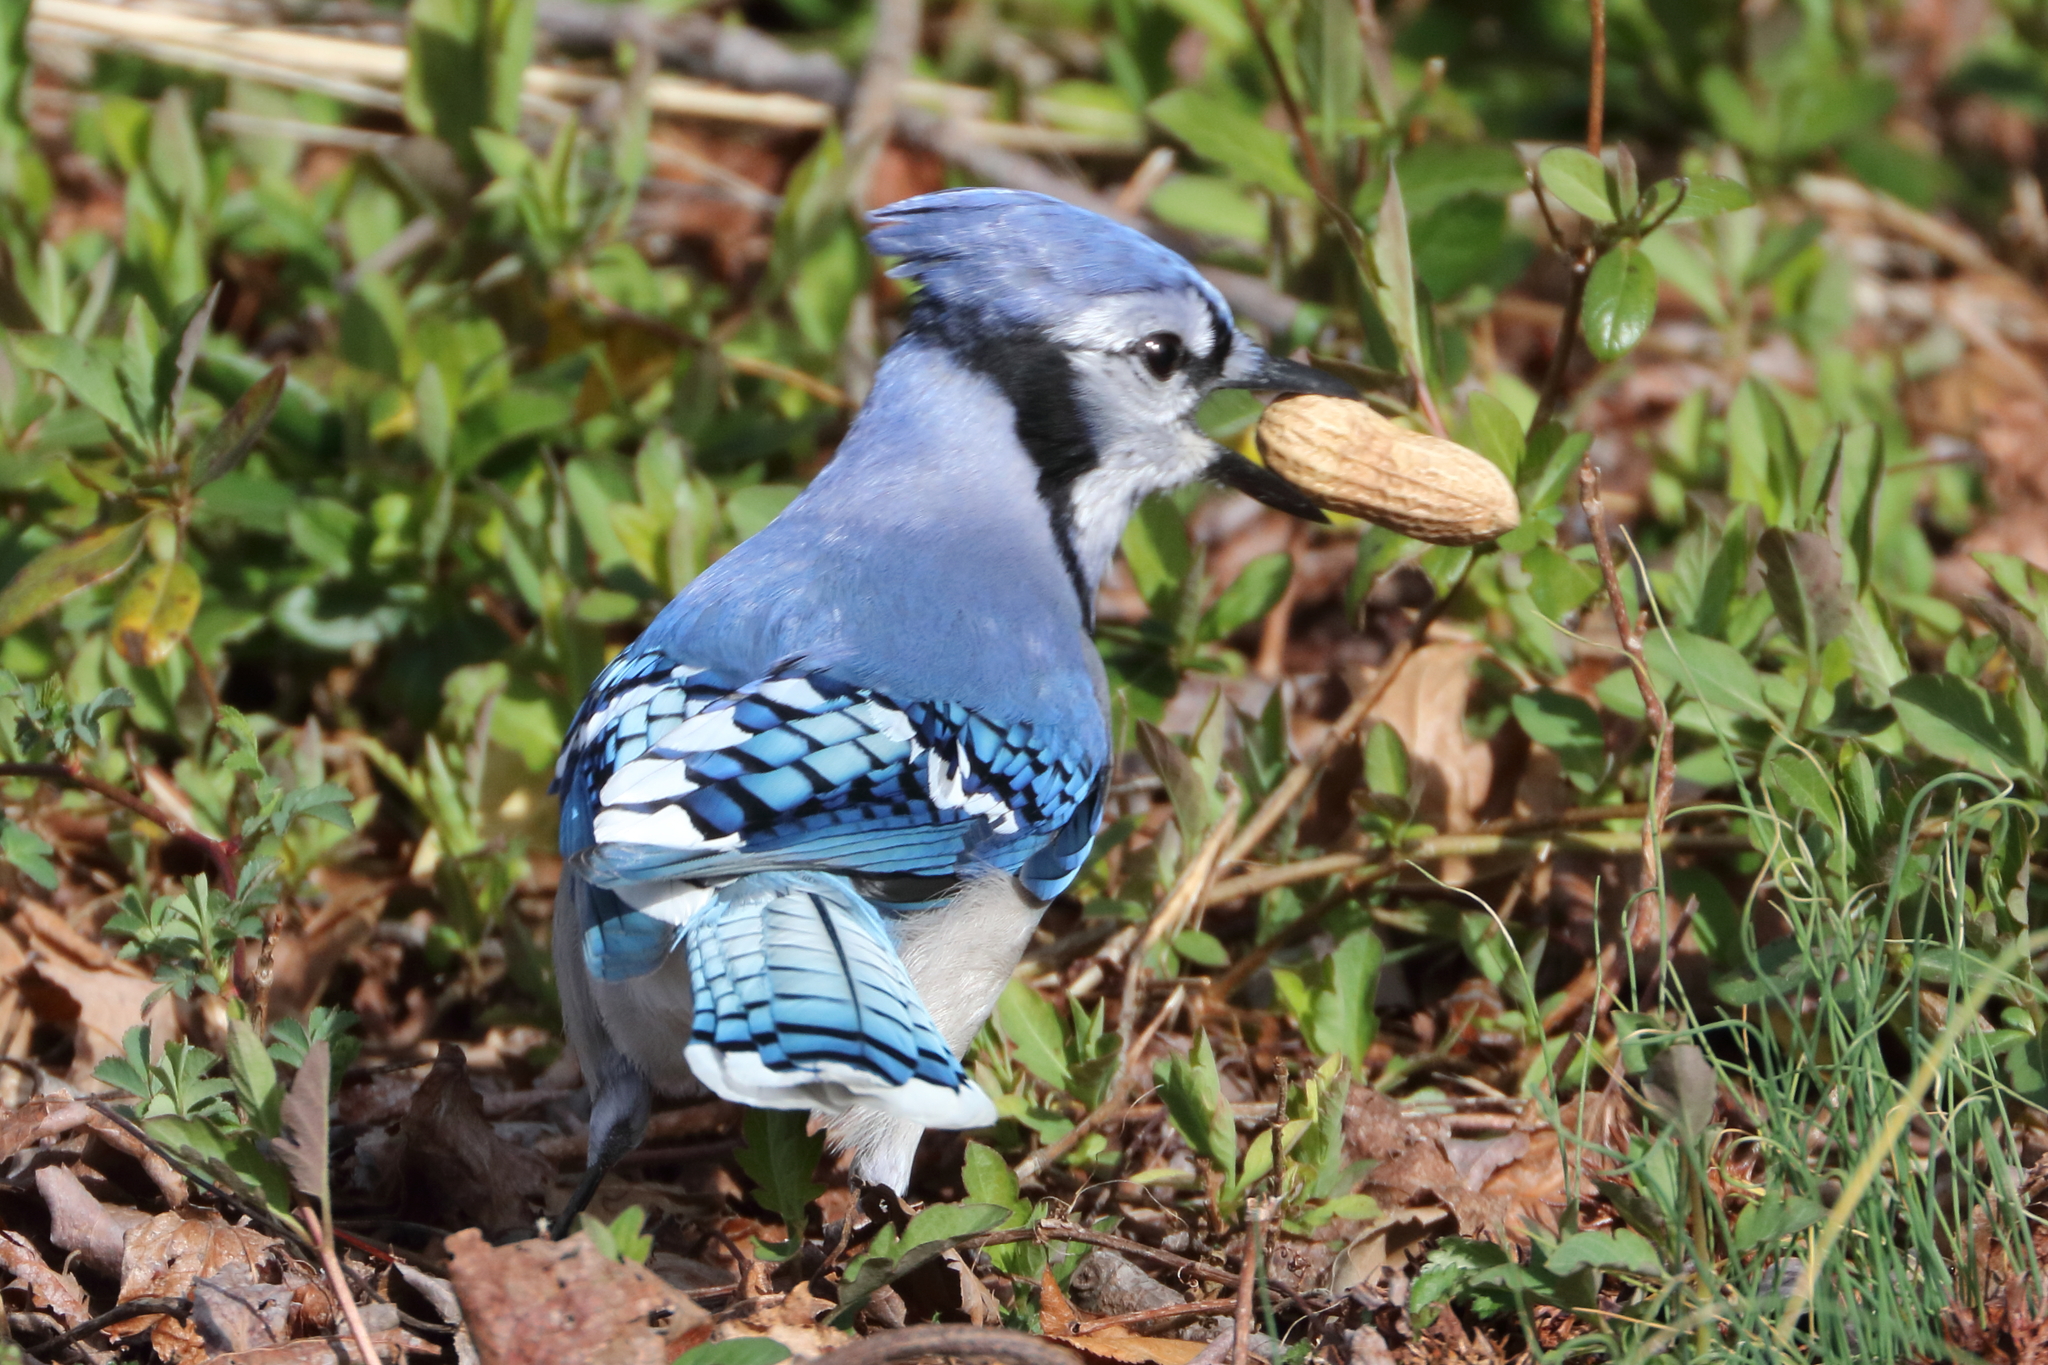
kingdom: Animalia
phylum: Chordata
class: Aves
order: Passeriformes
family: Corvidae
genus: Cyanocitta
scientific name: Cyanocitta cristata
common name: Blue jay
